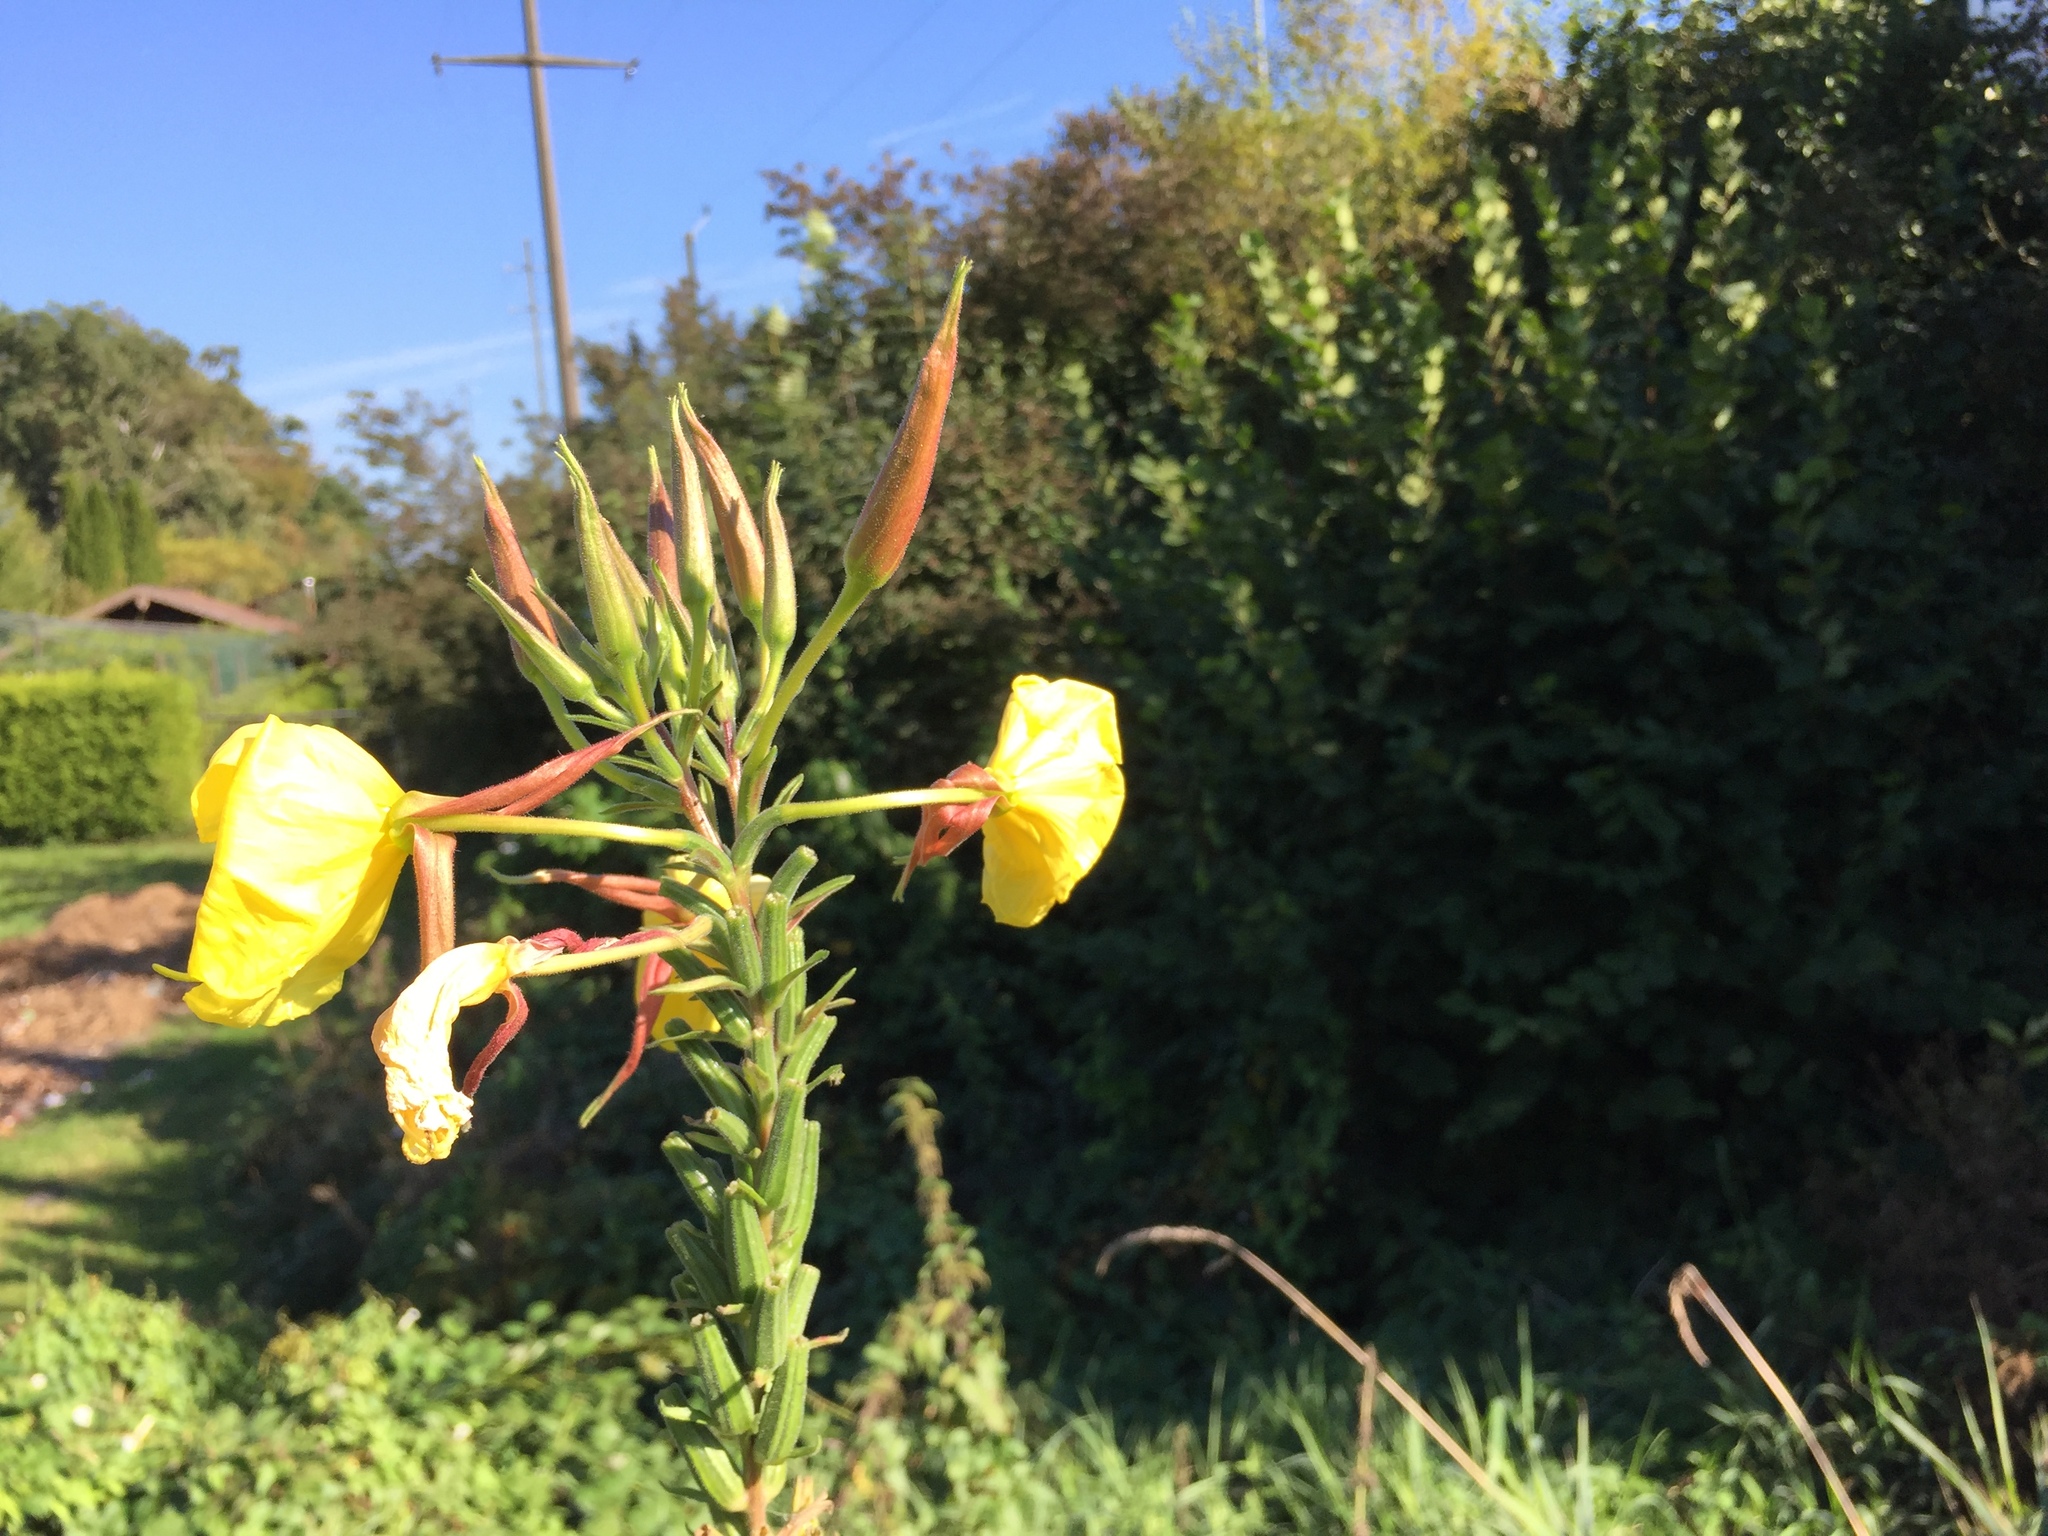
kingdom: Plantae
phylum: Tracheophyta
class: Magnoliopsida
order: Myrtales
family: Onagraceae
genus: Oenothera
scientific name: Oenothera glazioviana
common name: Large-flowered evening-primrose
